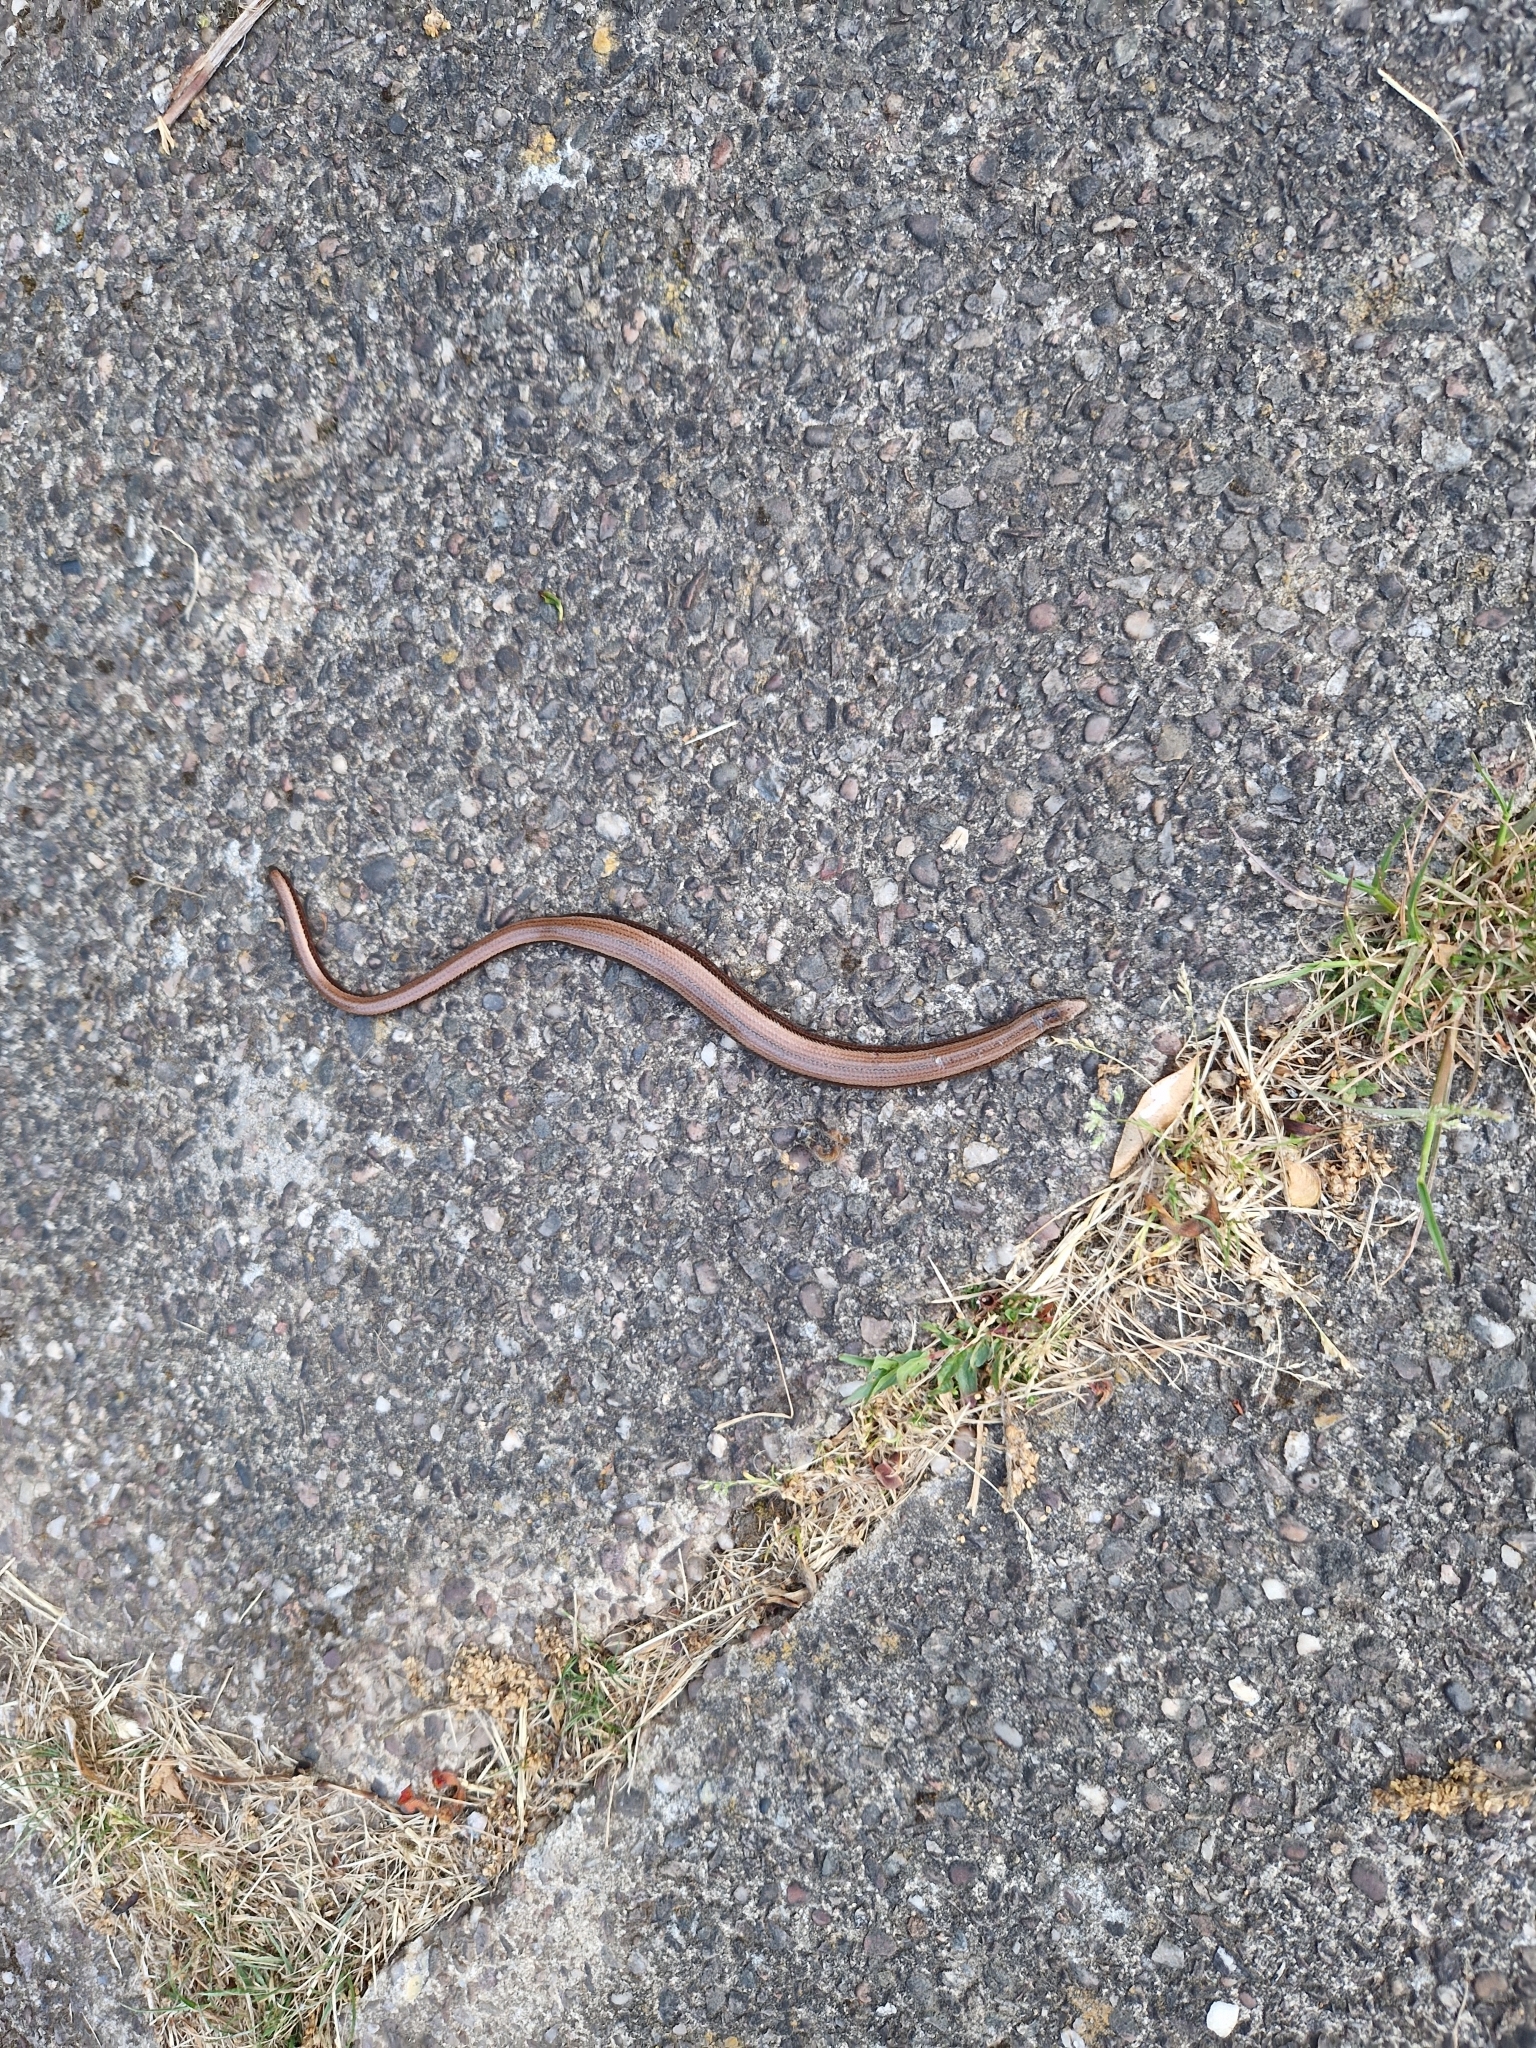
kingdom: Animalia
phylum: Chordata
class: Squamata
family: Anguidae
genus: Anguis
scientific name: Anguis fragilis
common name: Slow worm
